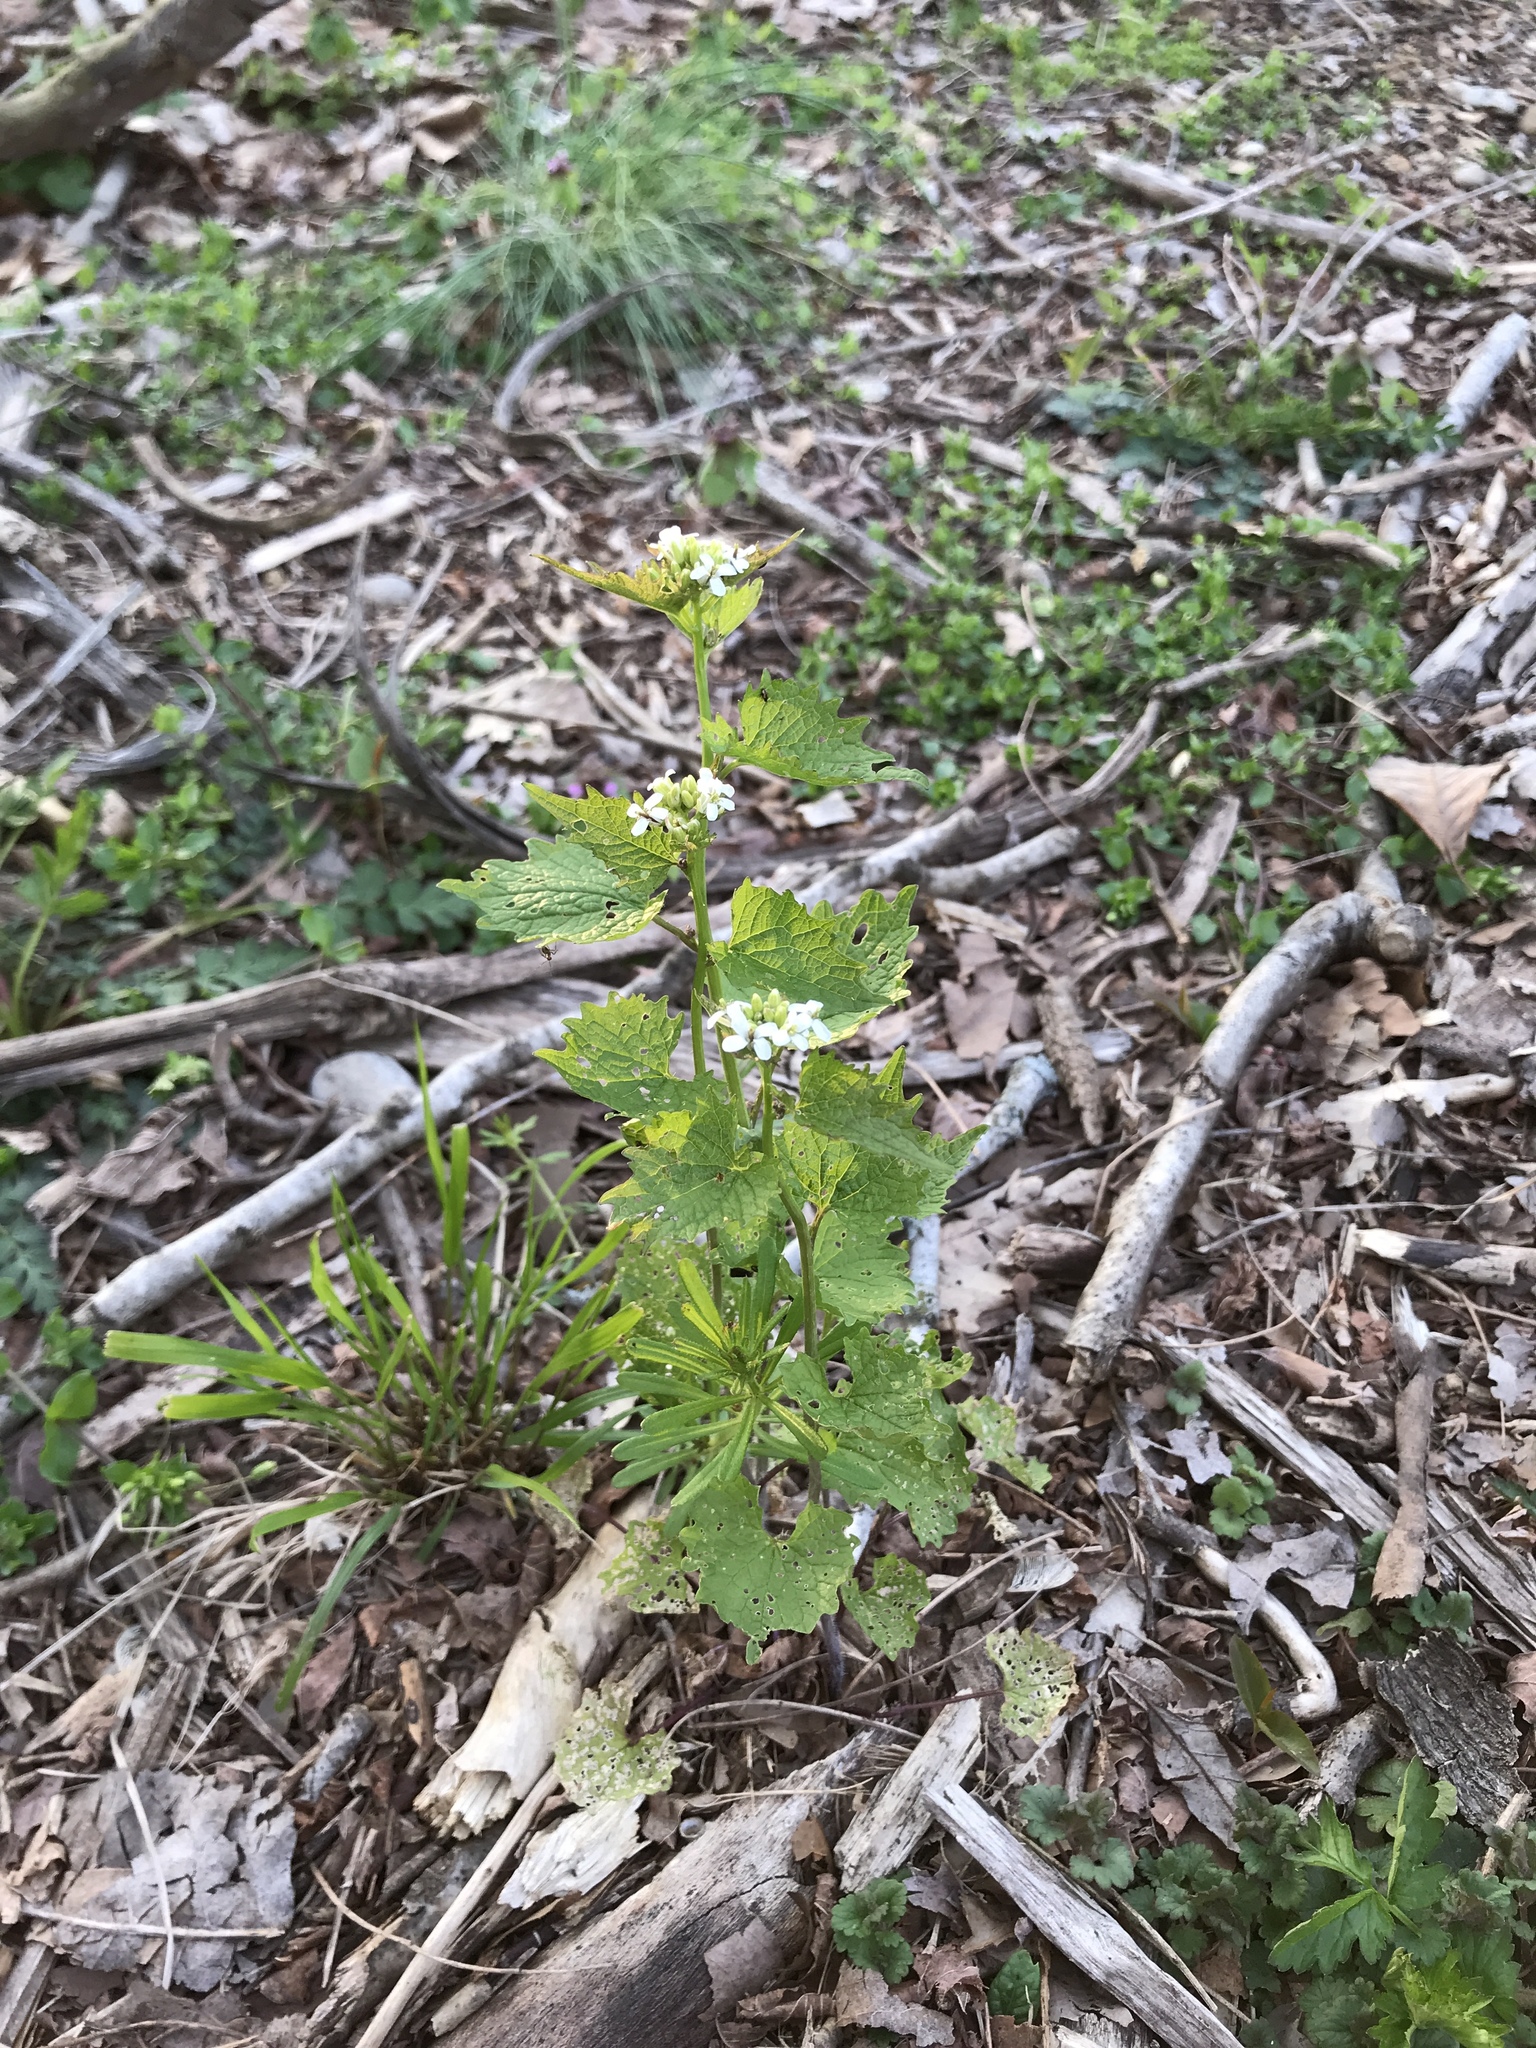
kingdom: Plantae
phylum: Tracheophyta
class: Magnoliopsida
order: Brassicales
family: Brassicaceae
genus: Alliaria
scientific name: Alliaria petiolata
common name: Garlic mustard
